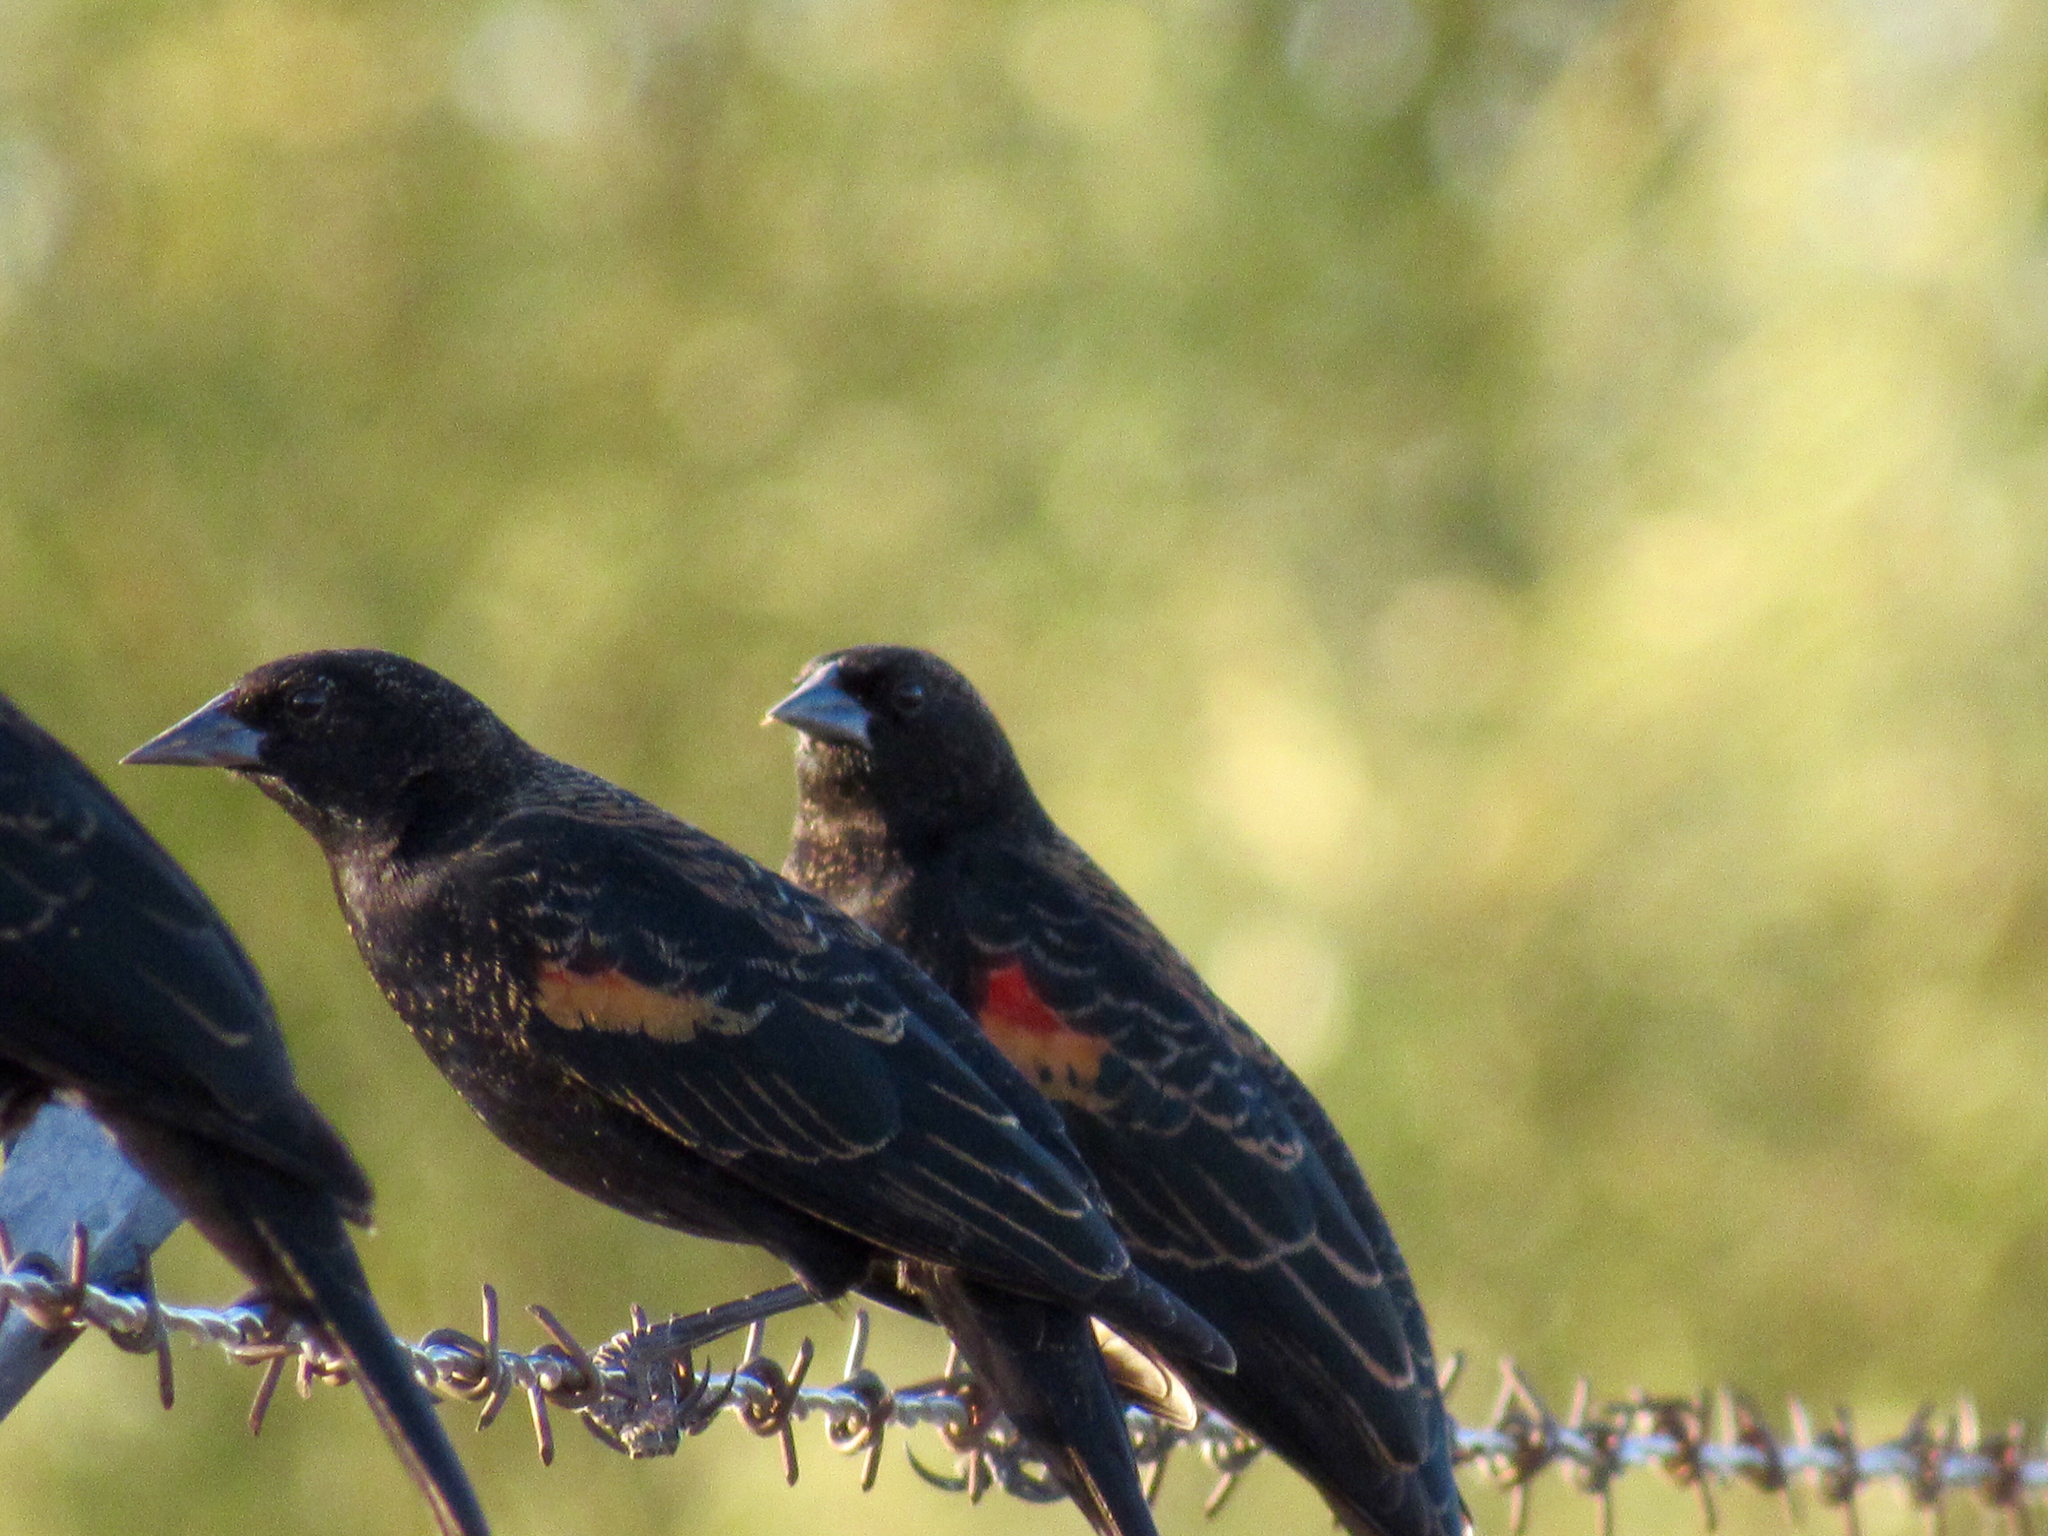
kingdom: Animalia
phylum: Chordata
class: Aves
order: Passeriformes
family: Icteridae
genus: Agelaius
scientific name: Agelaius phoeniceus
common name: Red-winged blackbird
